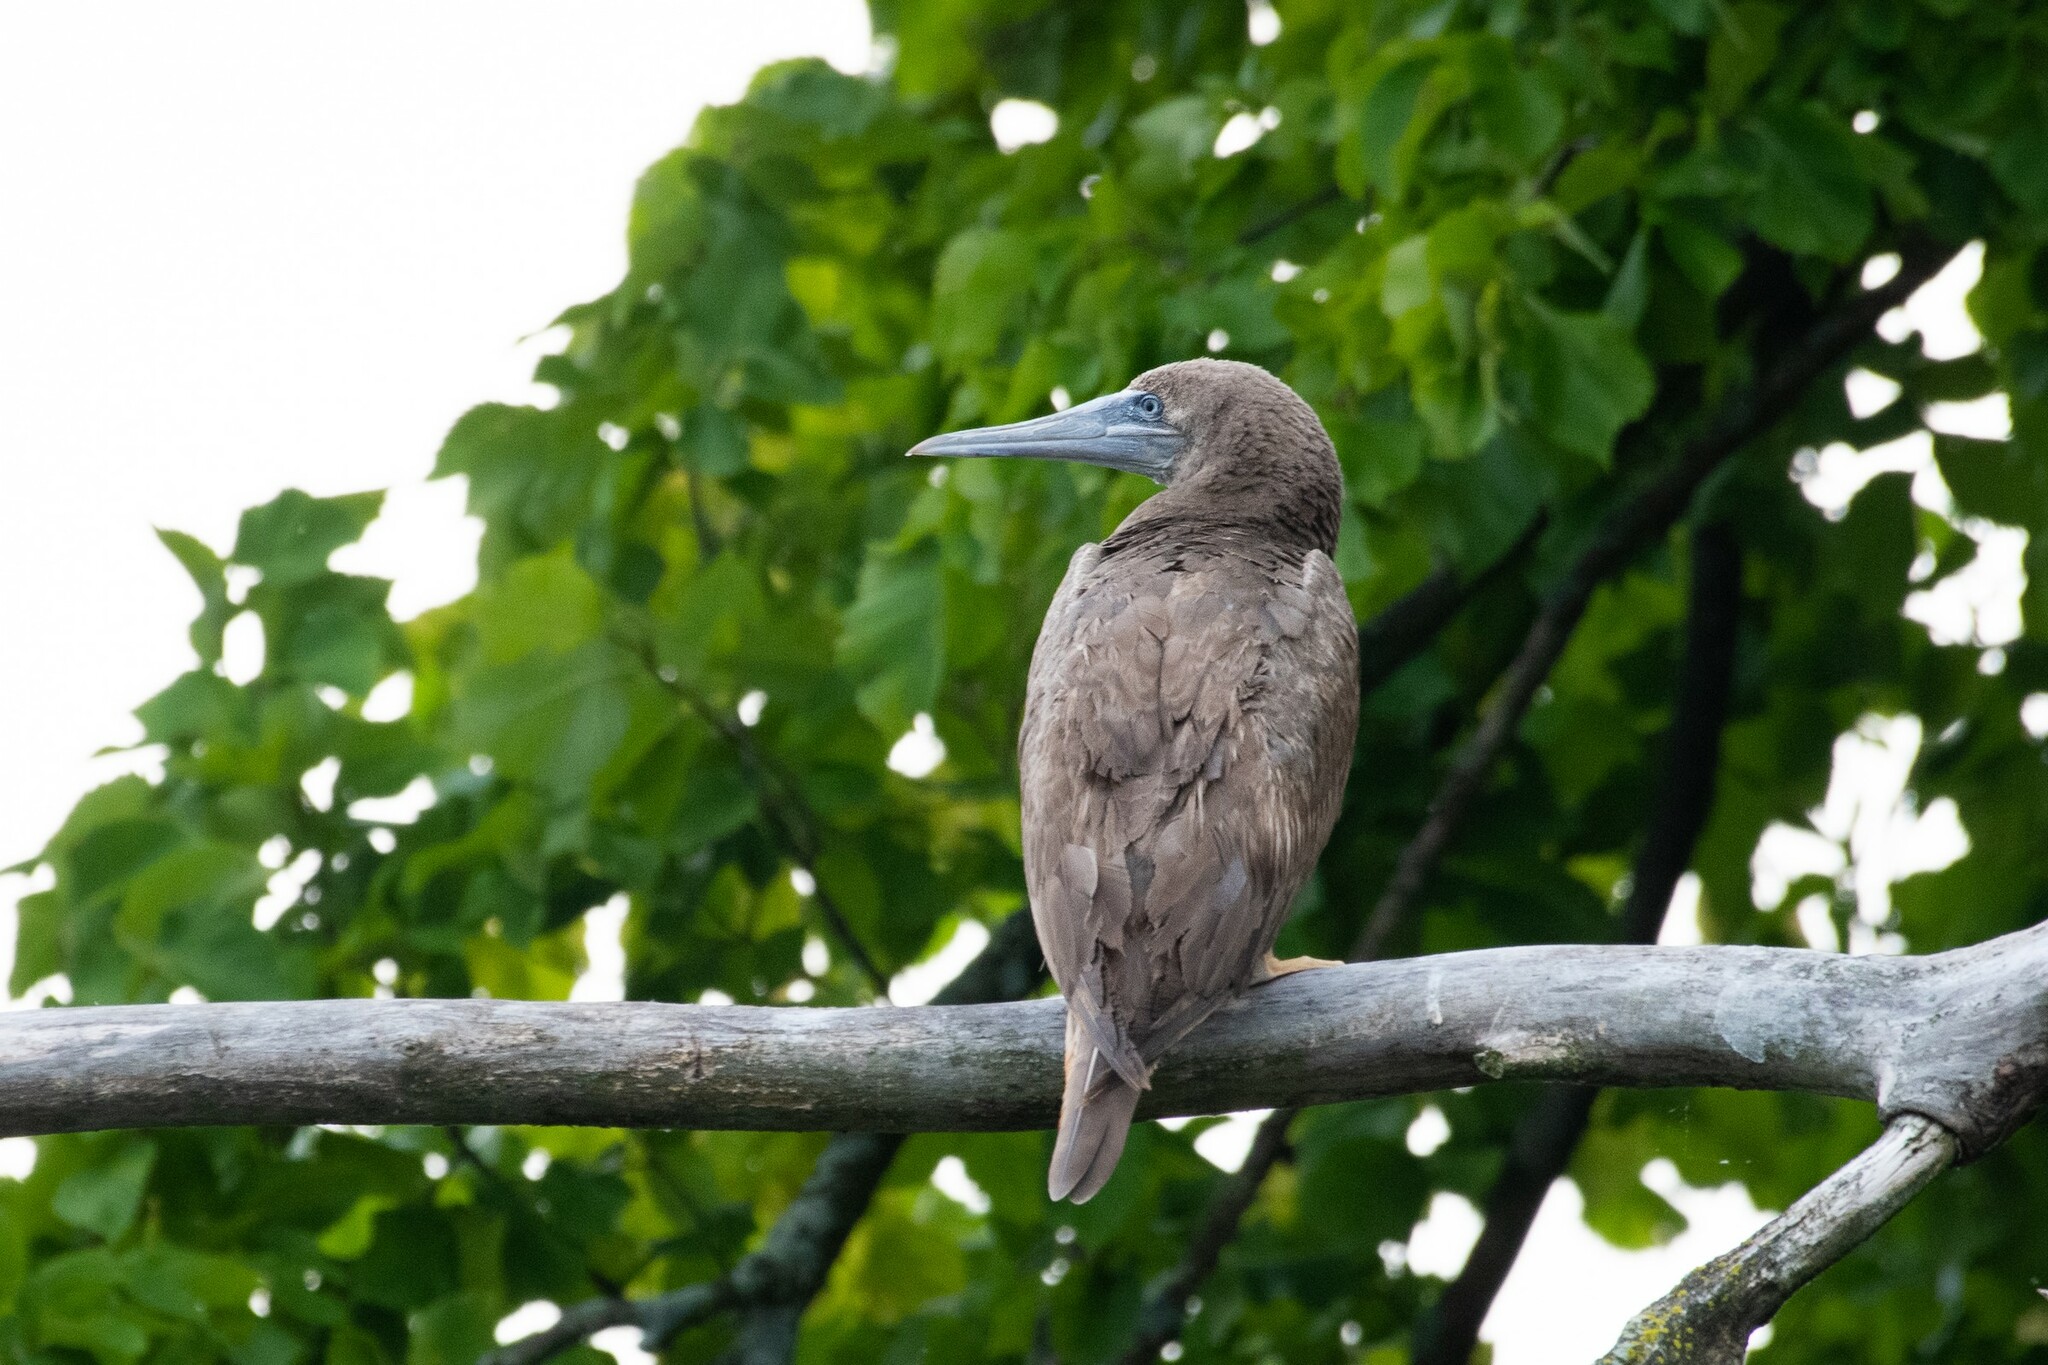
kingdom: Animalia
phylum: Chordata
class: Aves
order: Suliformes
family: Sulidae
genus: Sula
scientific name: Sula leucogaster
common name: Brown booby
